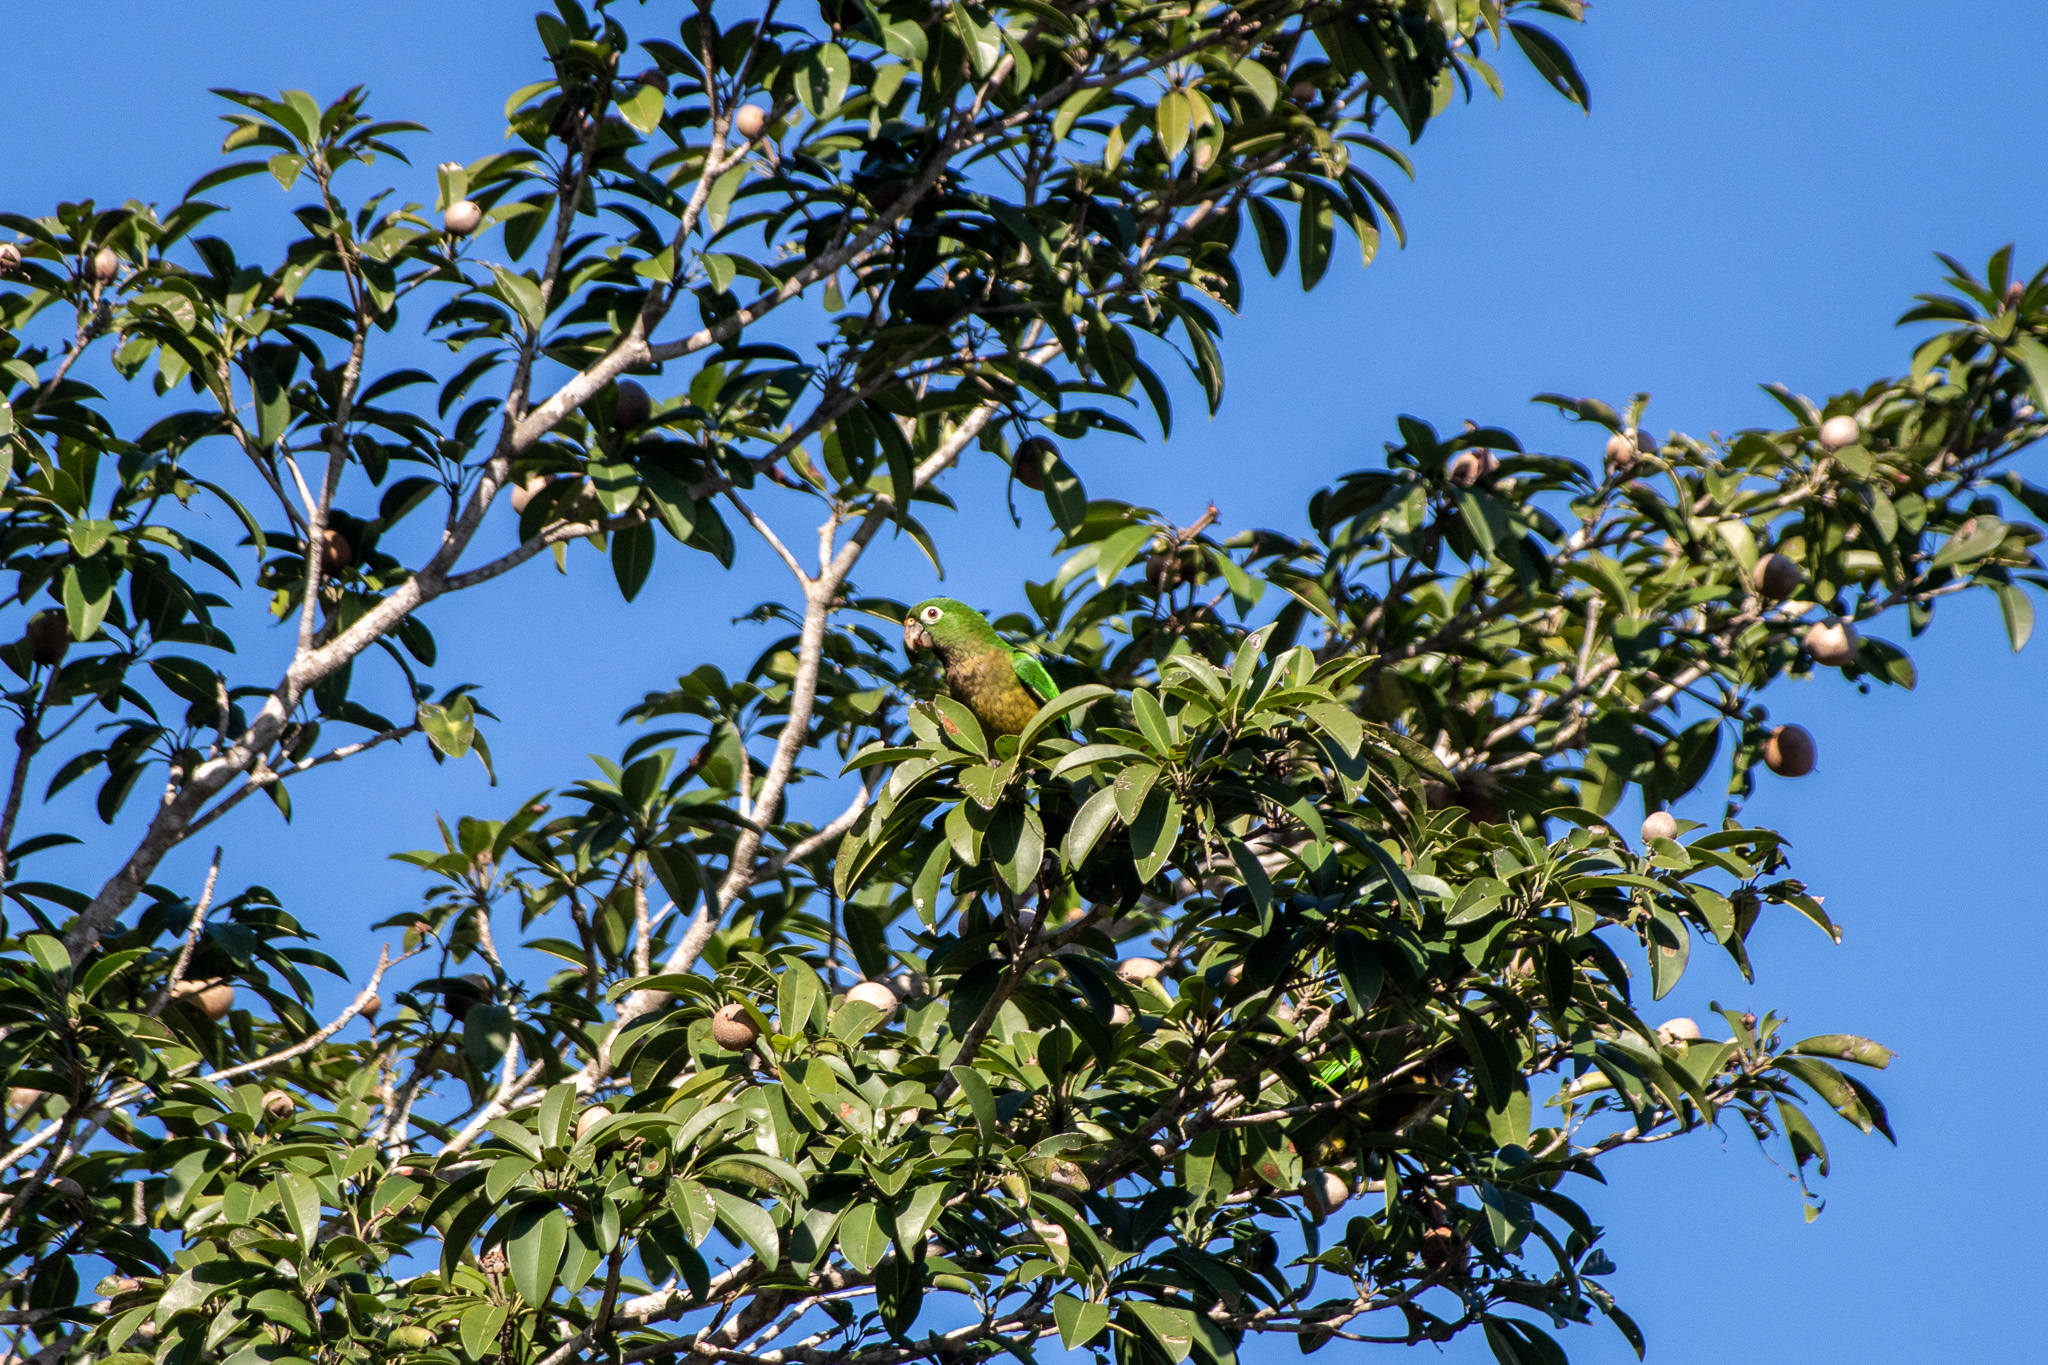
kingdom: Animalia
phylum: Chordata
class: Aves
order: Psittaciformes
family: Psittacidae
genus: Aratinga
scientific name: Aratinga nana
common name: Olive-throated parakeet
